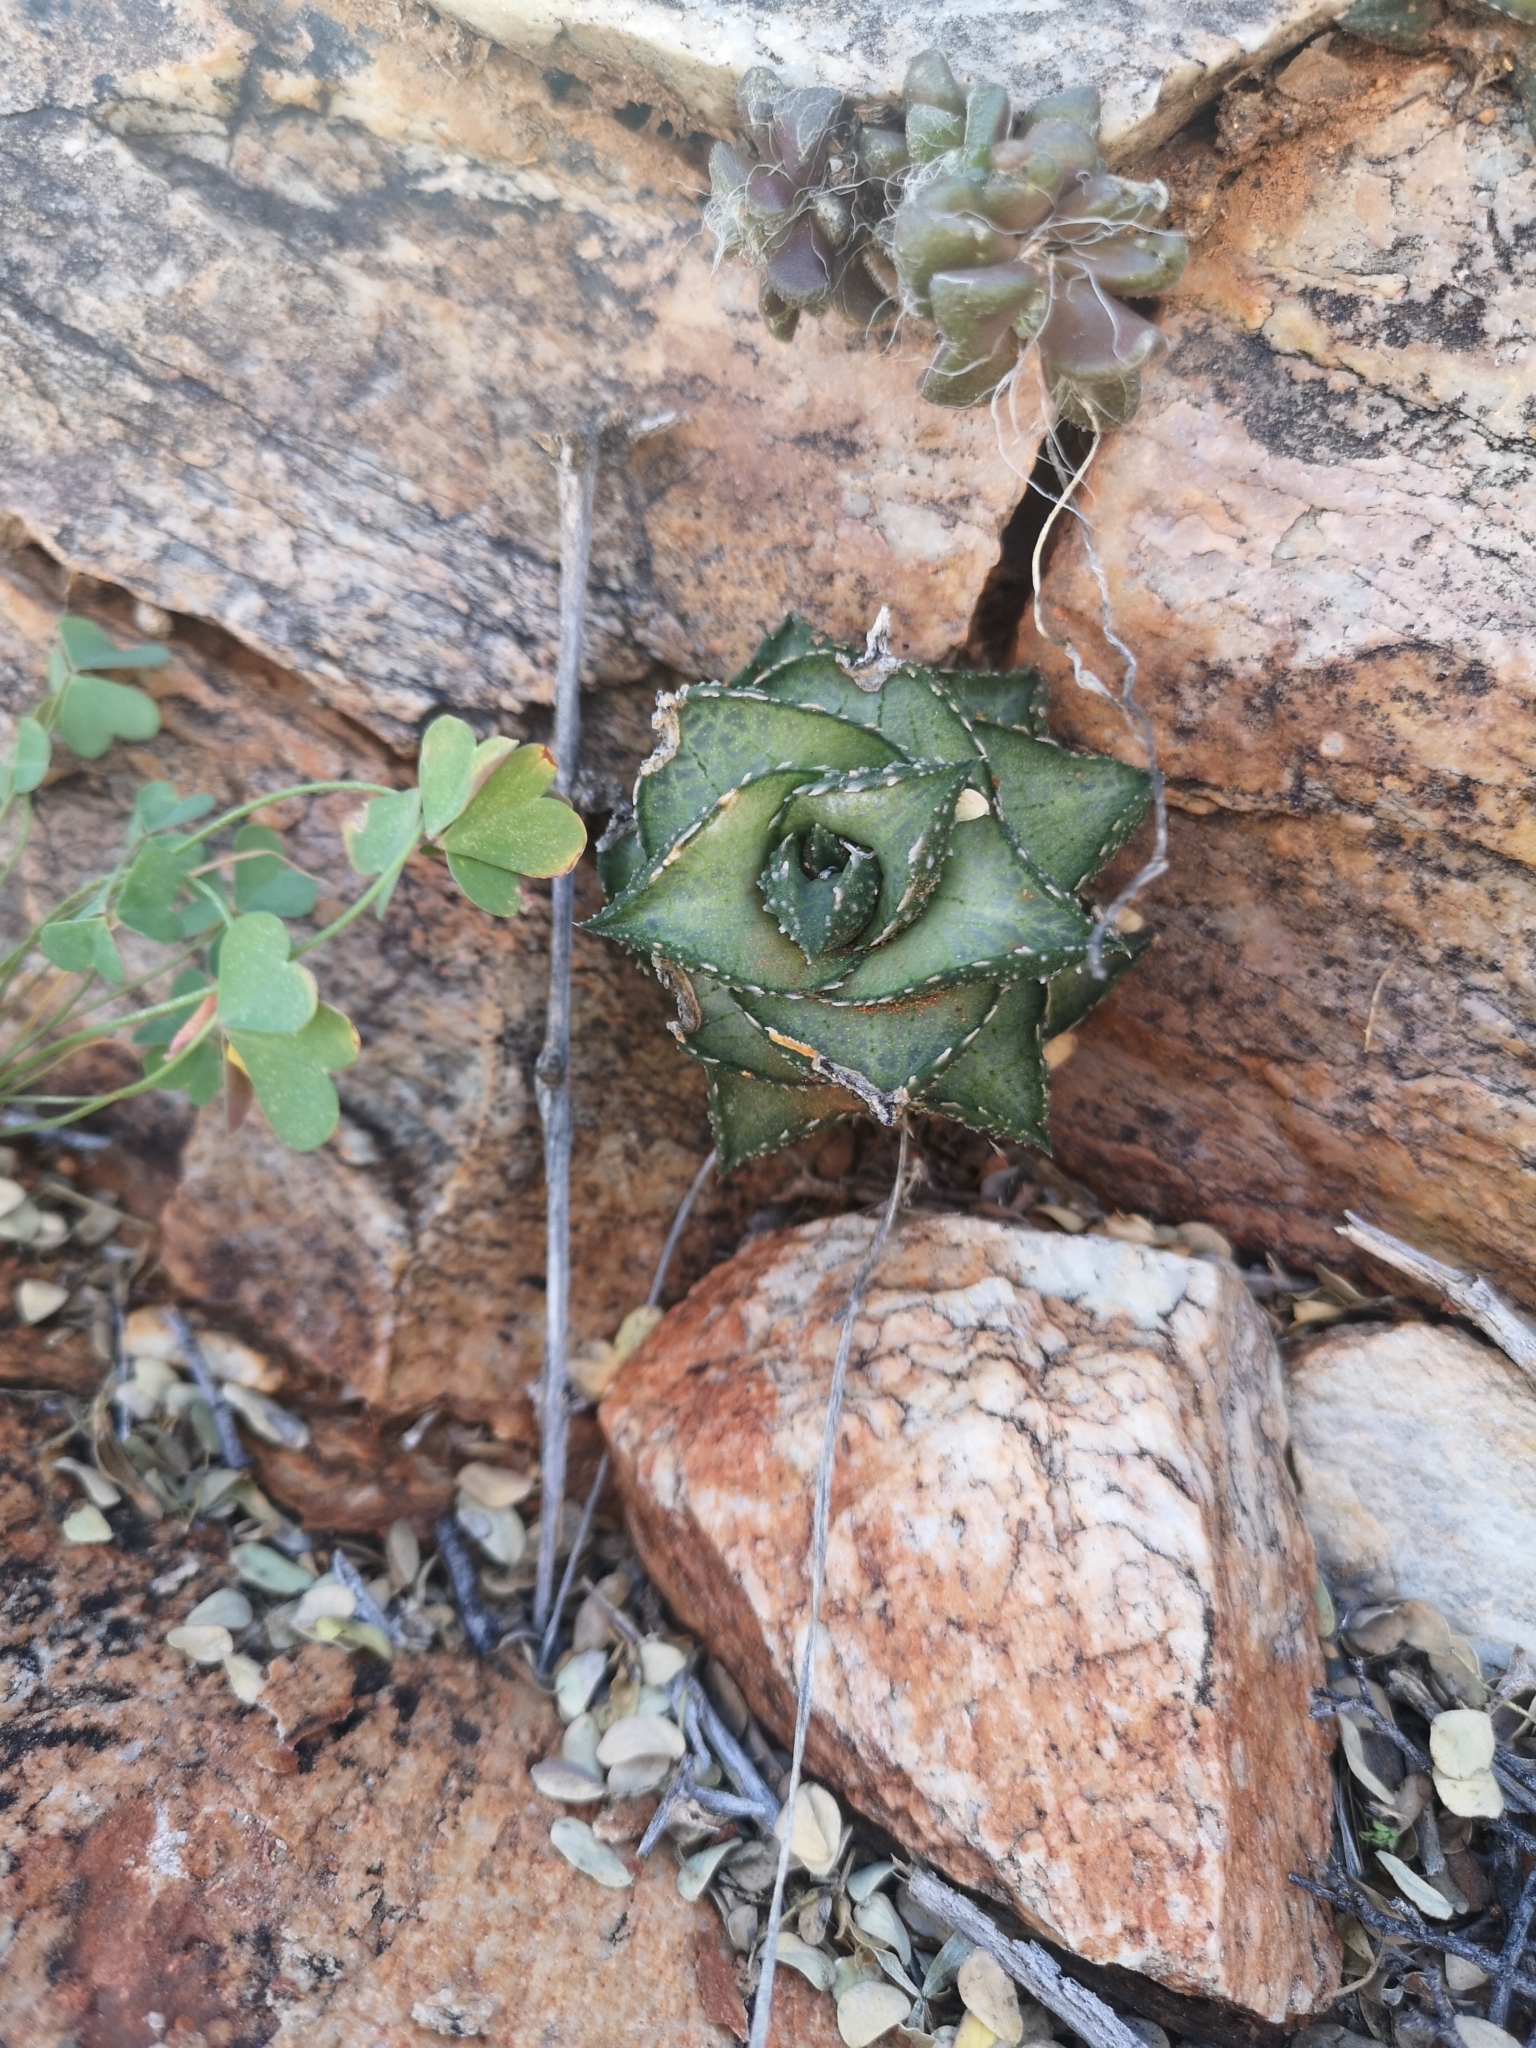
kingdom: Plantae
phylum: Tracheophyta
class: Liliopsida
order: Asparagales
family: Asphodelaceae
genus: Haworthiopsis
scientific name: Haworthiopsis tessellata
